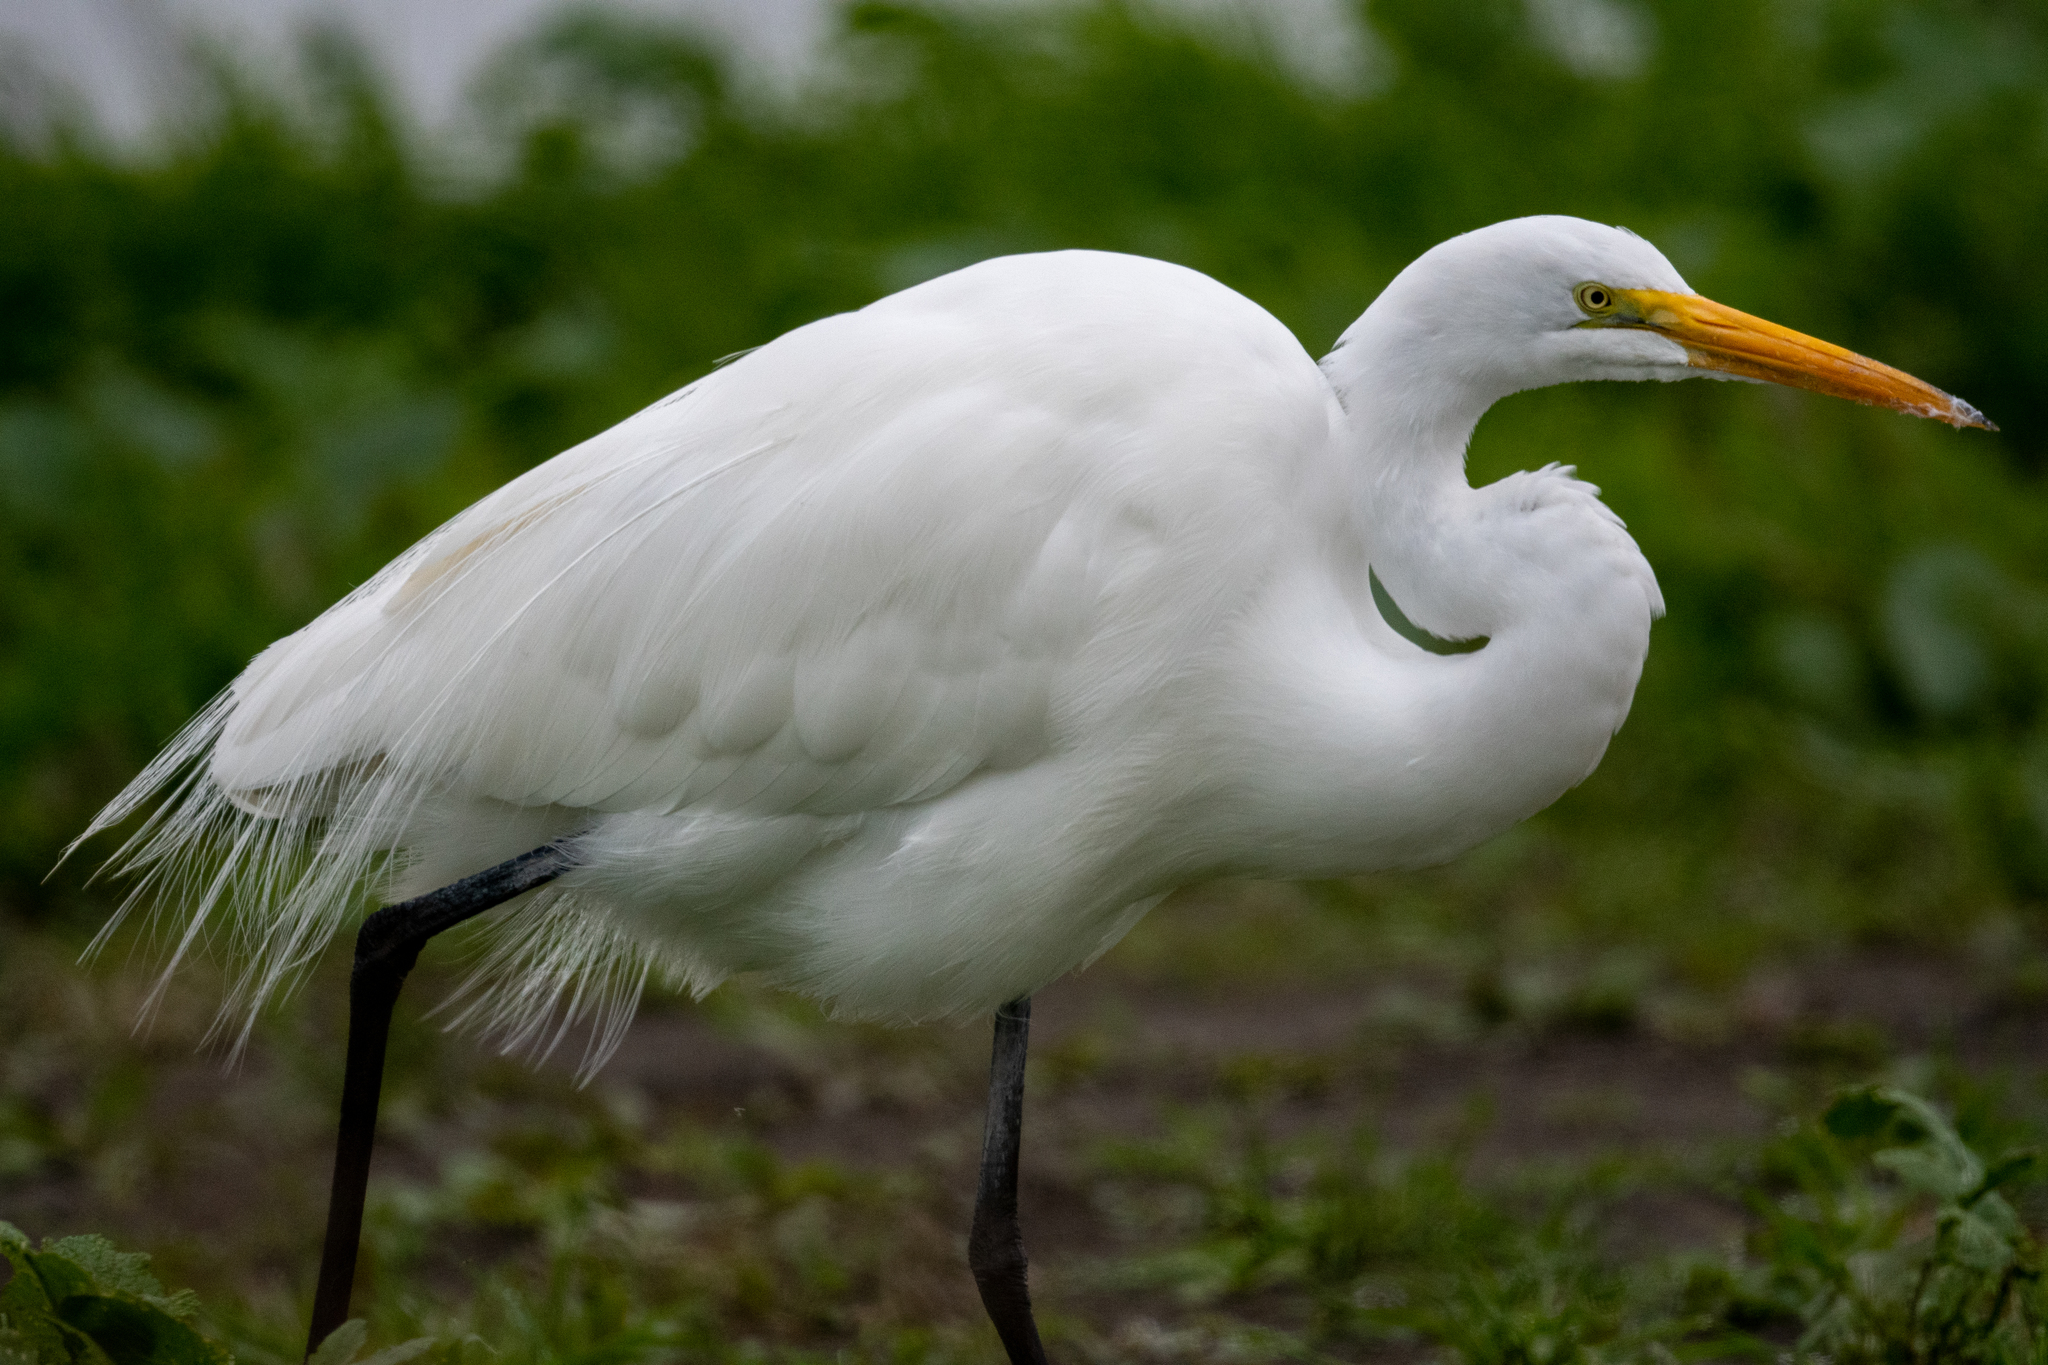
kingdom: Animalia
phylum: Chordata
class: Aves
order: Pelecaniformes
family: Ardeidae
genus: Ardea
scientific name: Ardea alba
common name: Great egret
